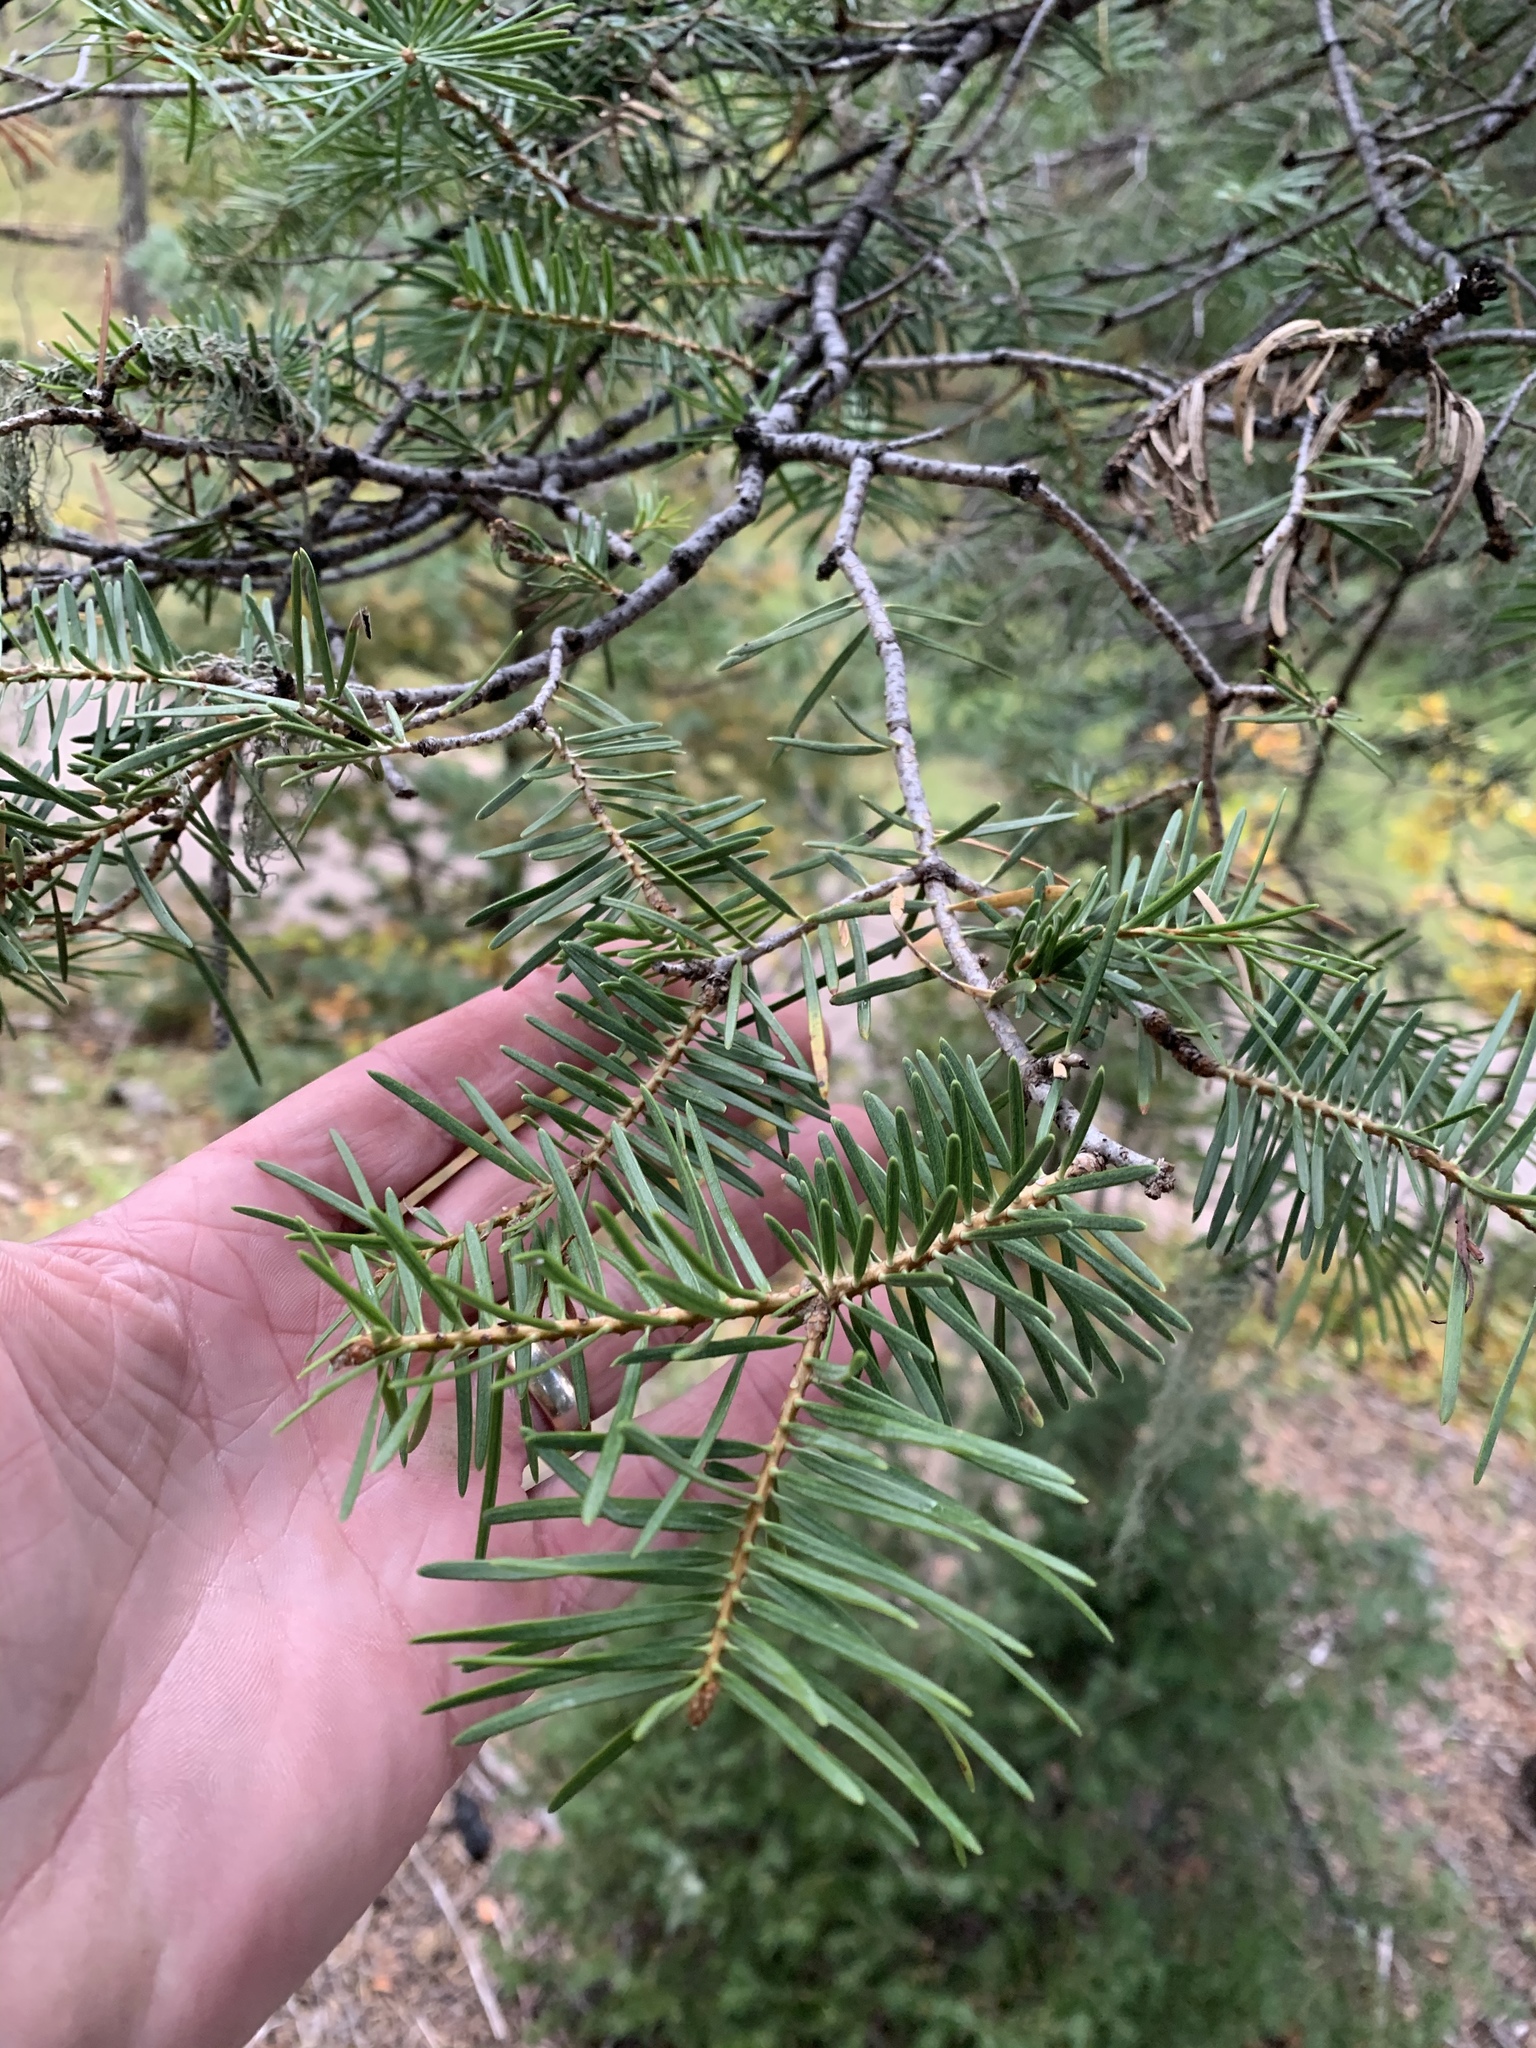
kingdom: Plantae
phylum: Tracheophyta
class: Pinopsida
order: Pinales
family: Pinaceae
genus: Abies
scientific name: Abies concolor
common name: Colorado fir
